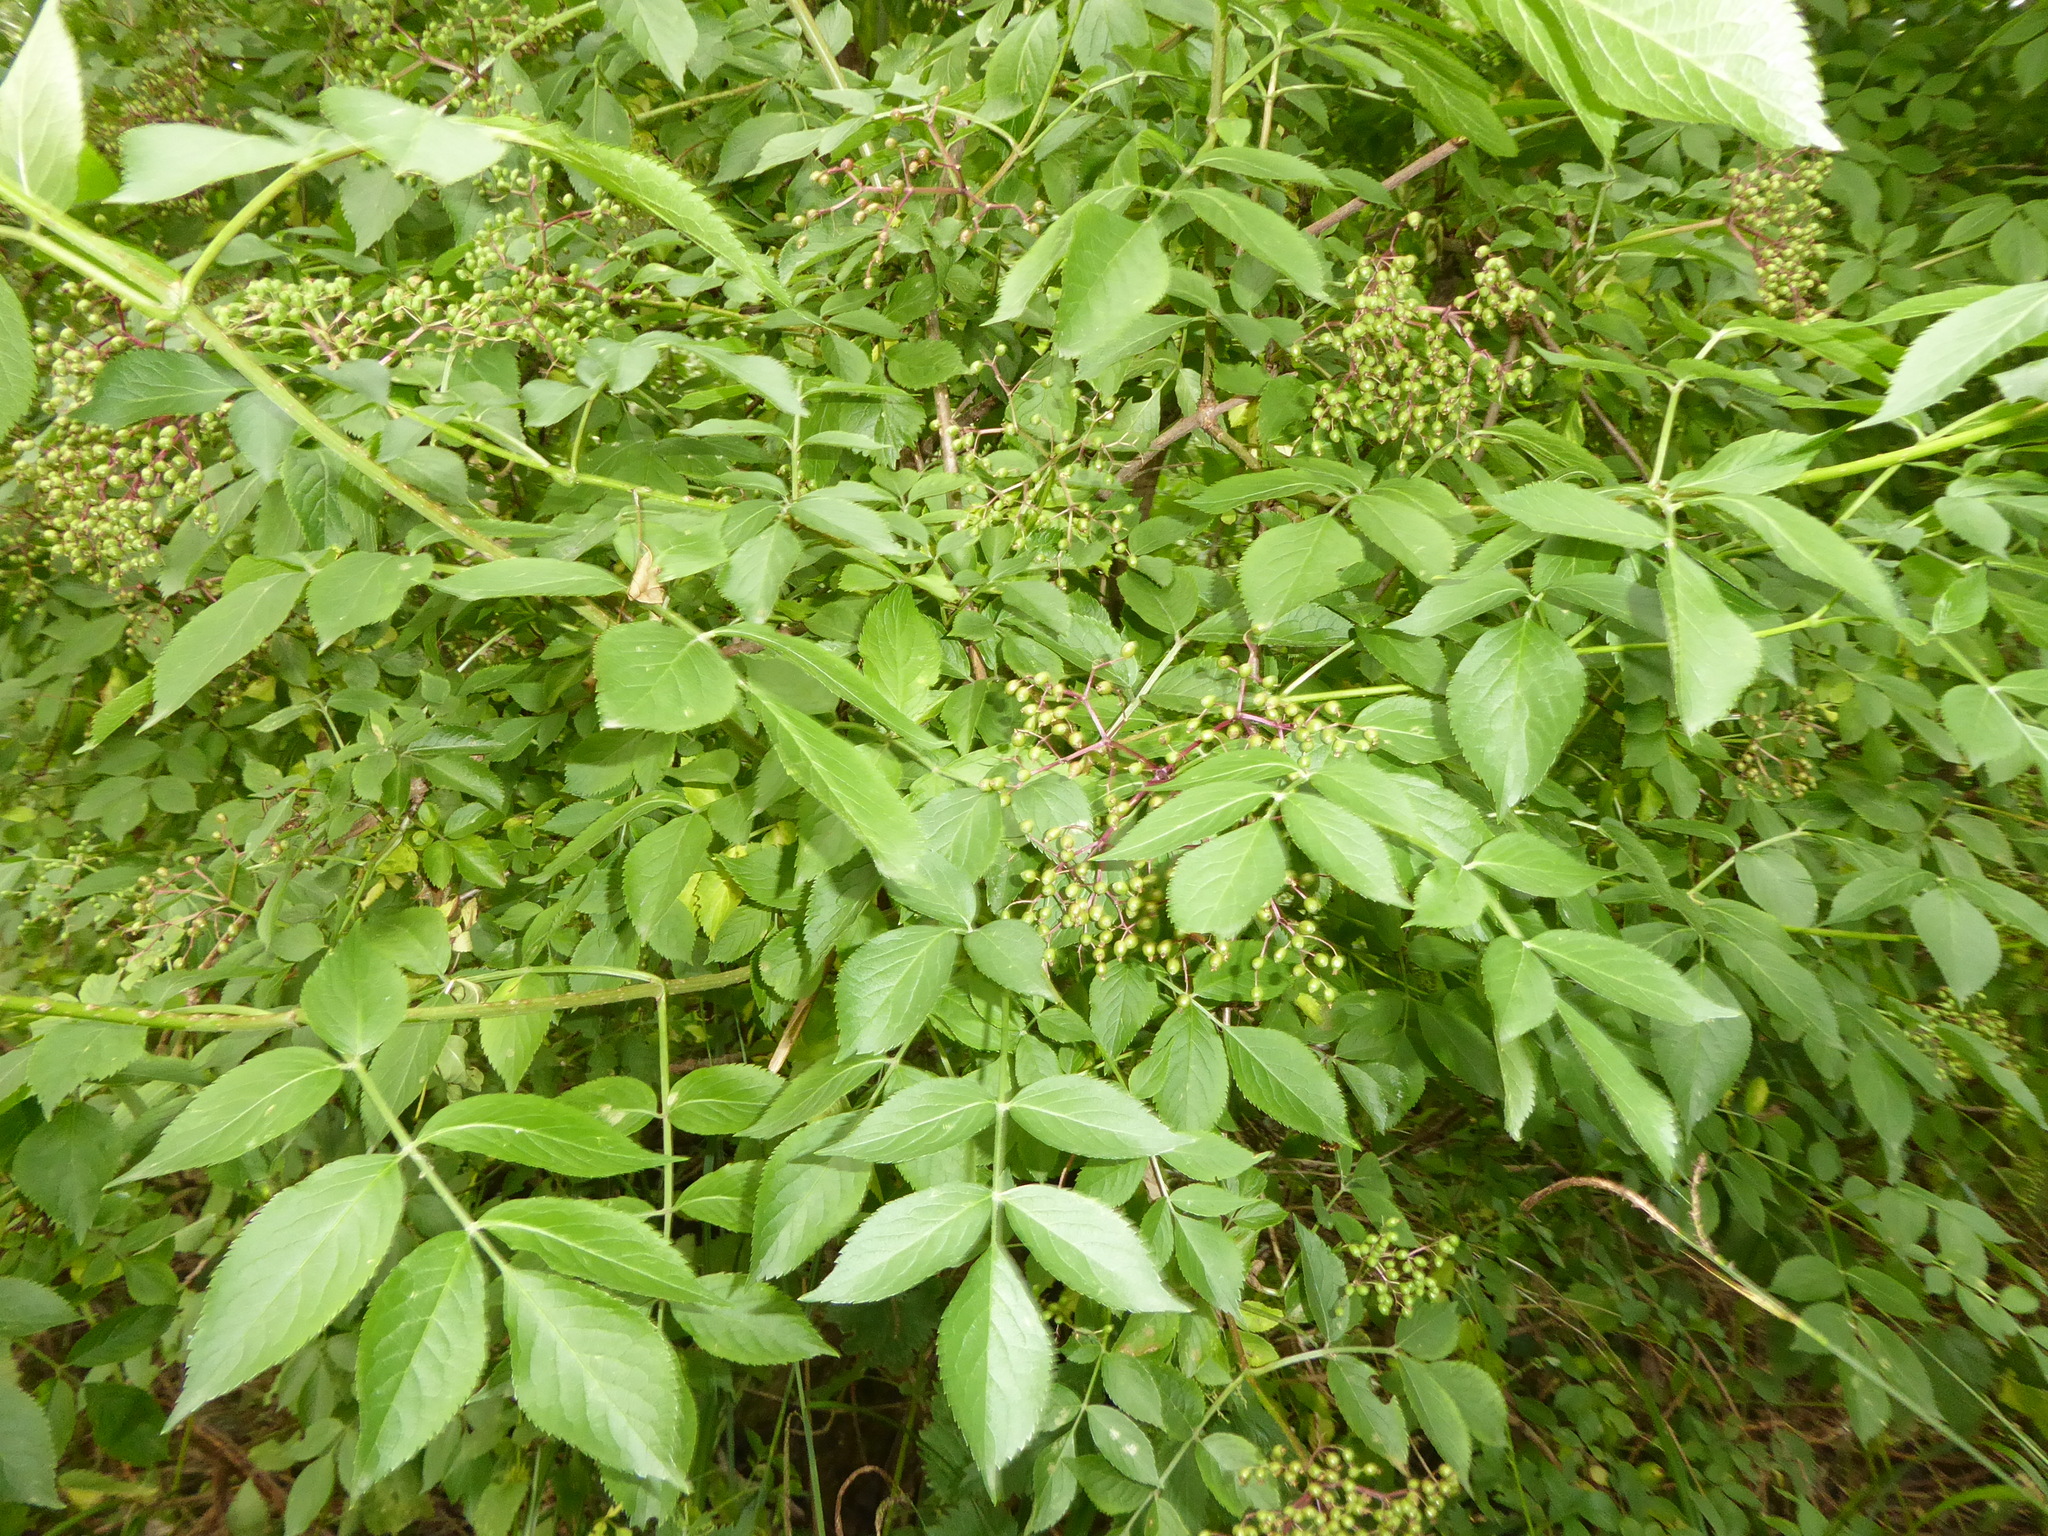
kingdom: Plantae
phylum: Tracheophyta
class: Magnoliopsida
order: Dipsacales
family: Viburnaceae
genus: Sambucus
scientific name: Sambucus nigra
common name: Elder
